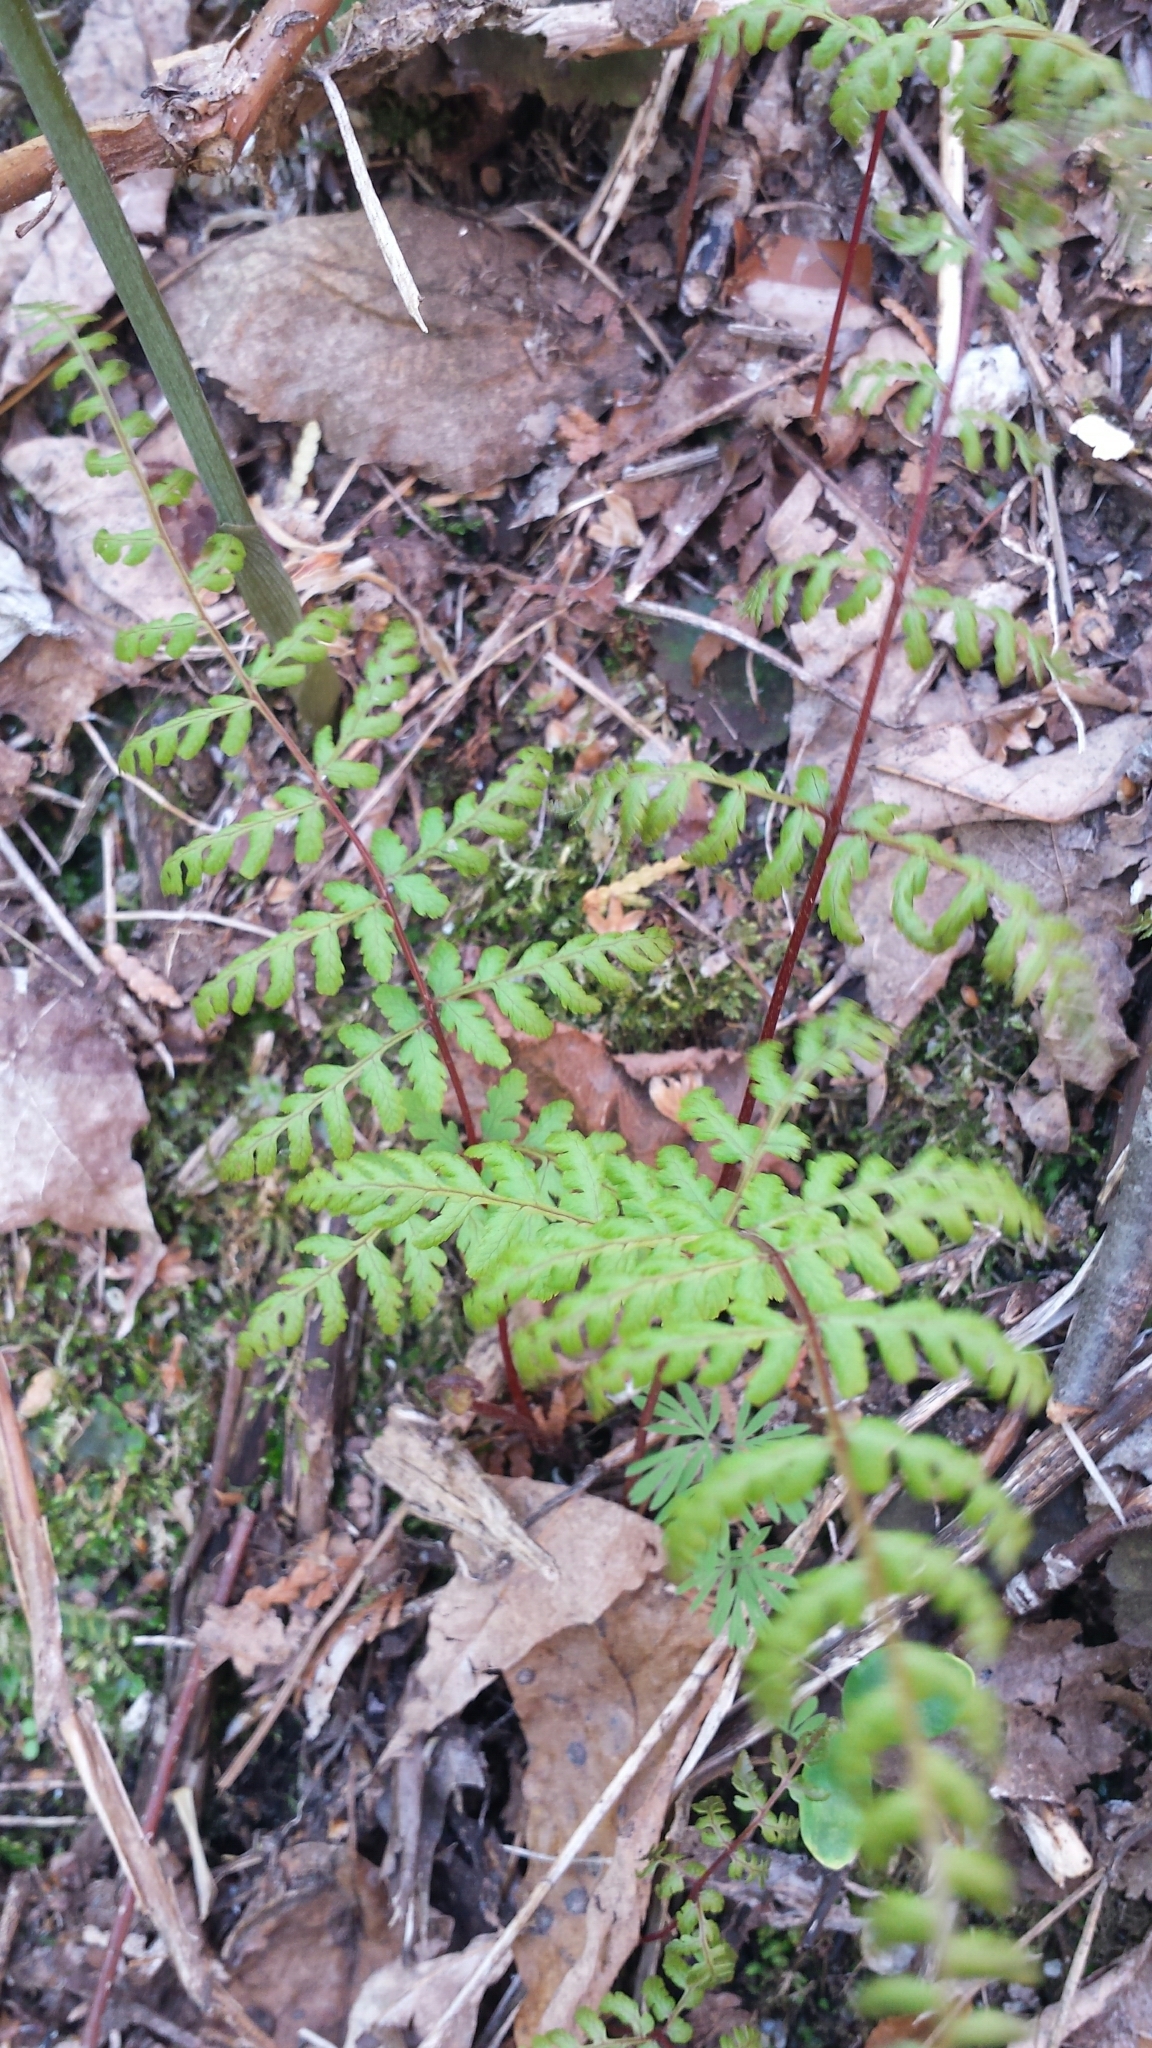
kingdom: Plantae
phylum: Tracheophyta
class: Polypodiopsida
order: Polypodiales
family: Cystopteridaceae
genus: Cystopteris
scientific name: Cystopteris bulbifera
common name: Bulblet bladder fern
